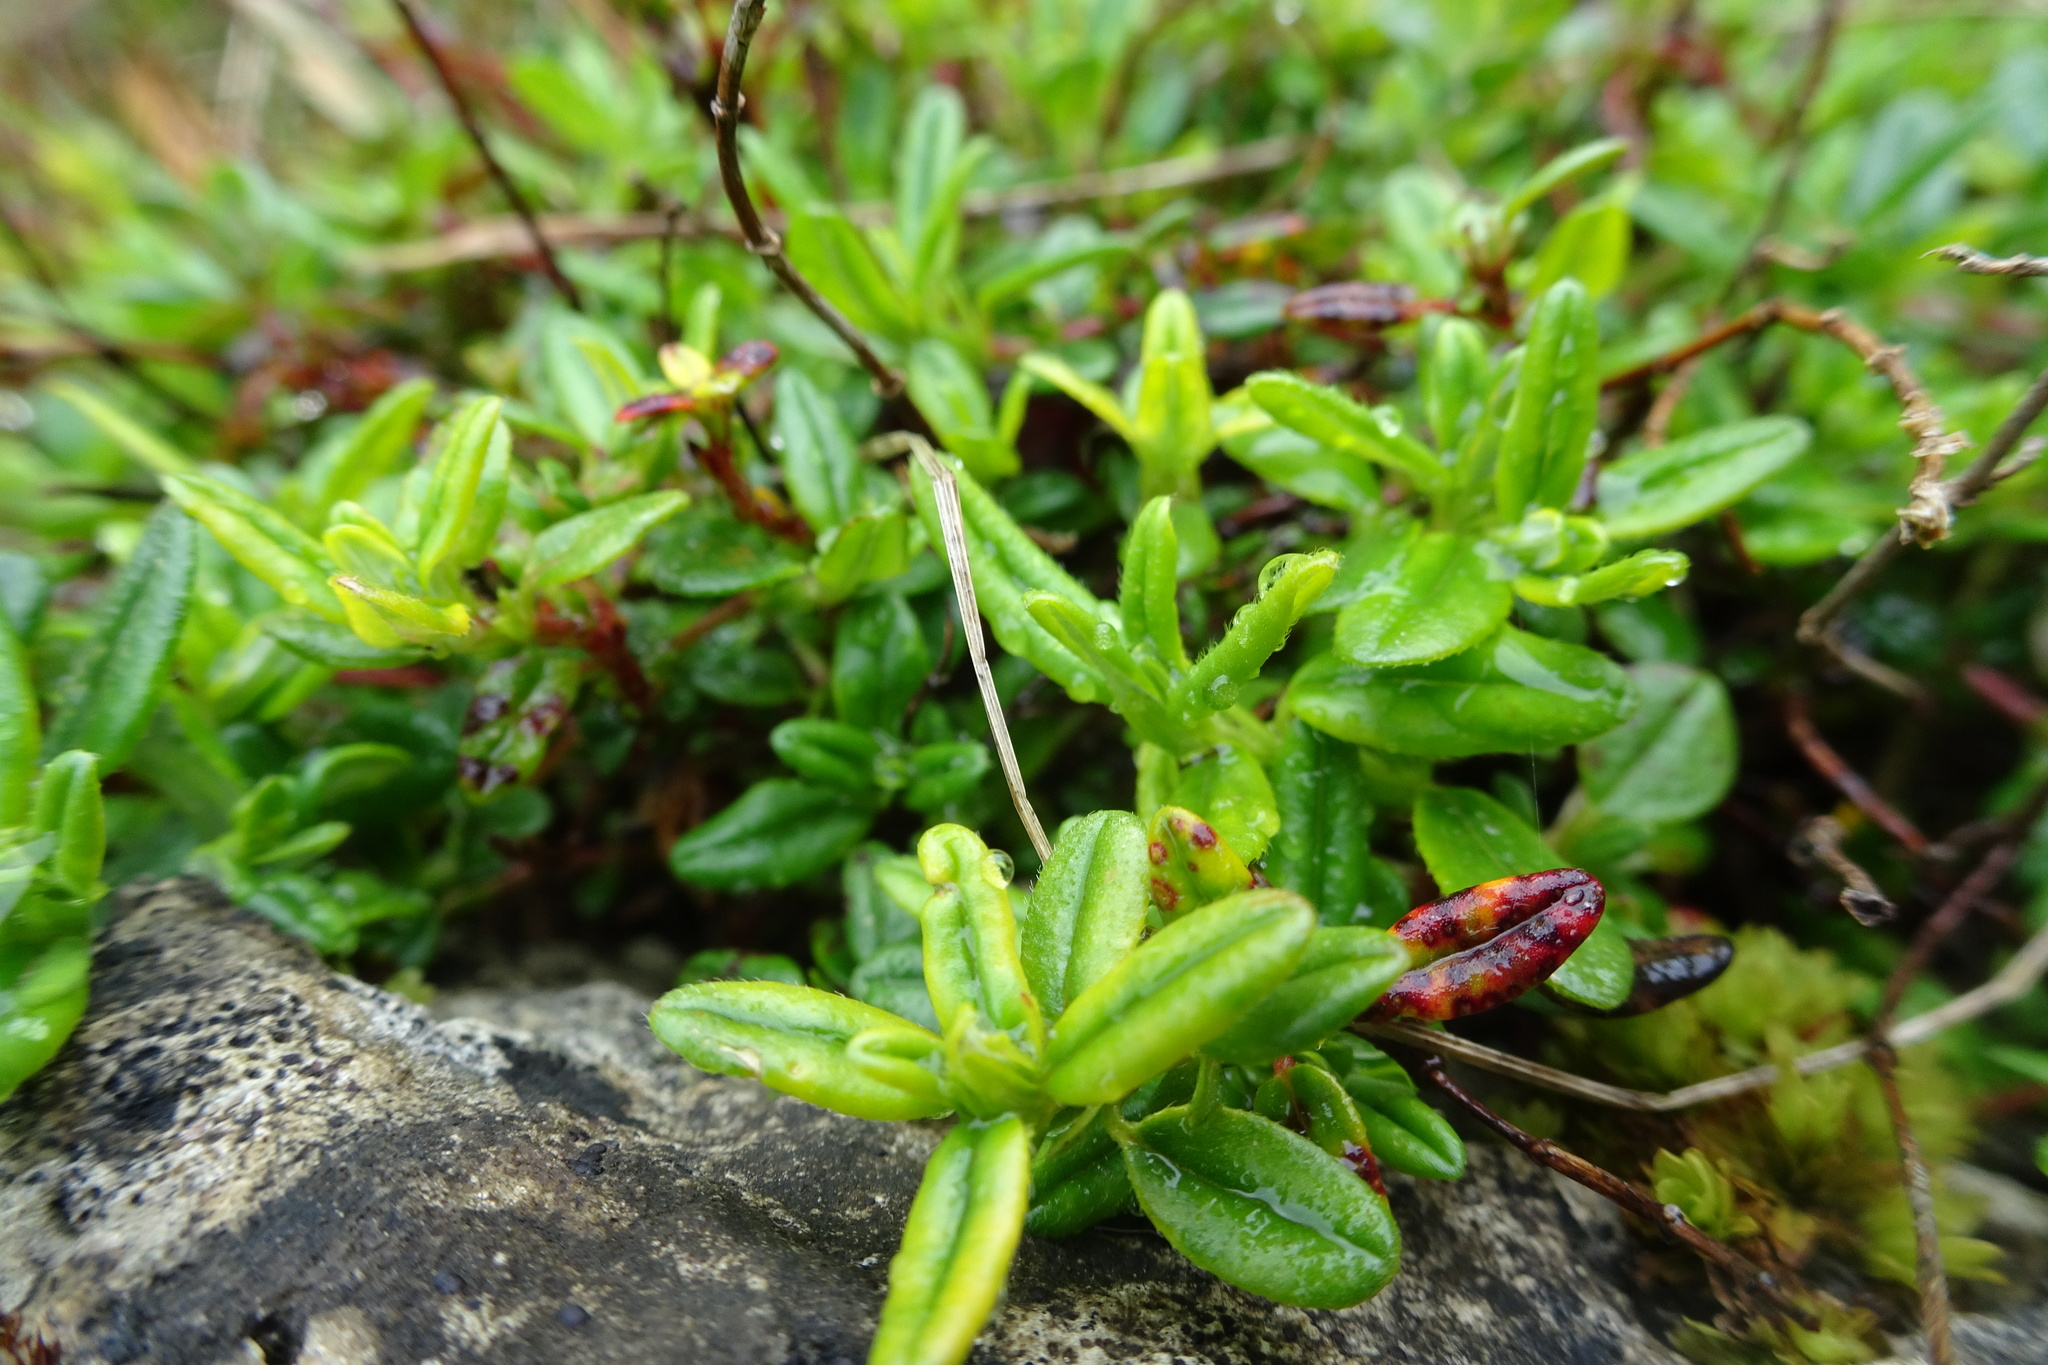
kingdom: Plantae
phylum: Tracheophyta
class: Magnoliopsida
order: Malvales
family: Cistaceae
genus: Helianthemum
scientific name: Helianthemum nummularium
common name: Common rock-rose
